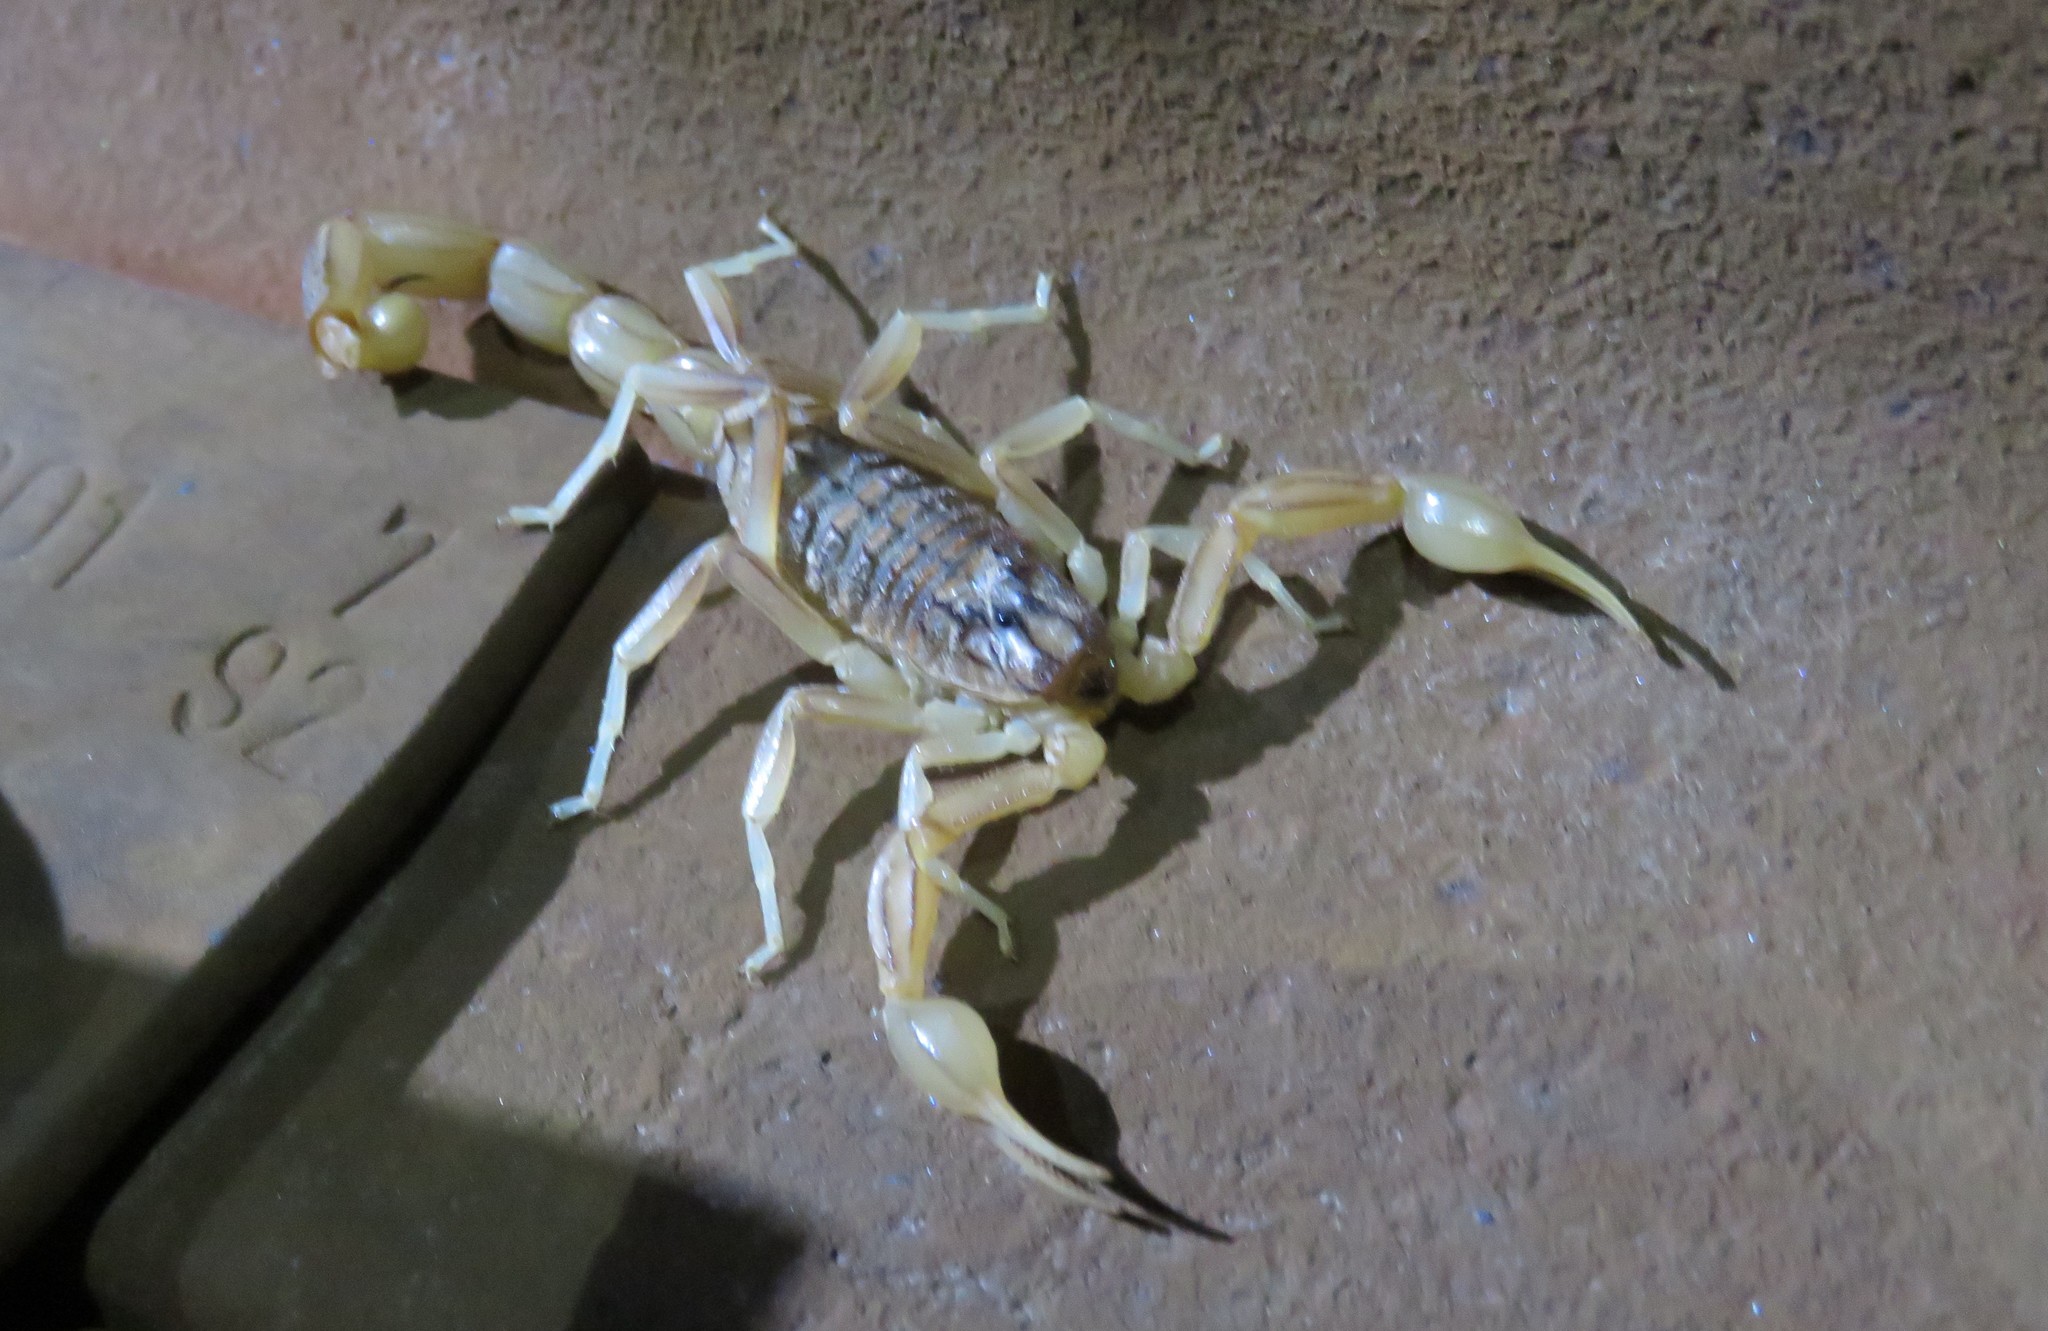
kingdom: Animalia
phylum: Arthropoda
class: Arachnida
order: Scorpiones
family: Buthidae
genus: Buthus
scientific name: Buthus halius
